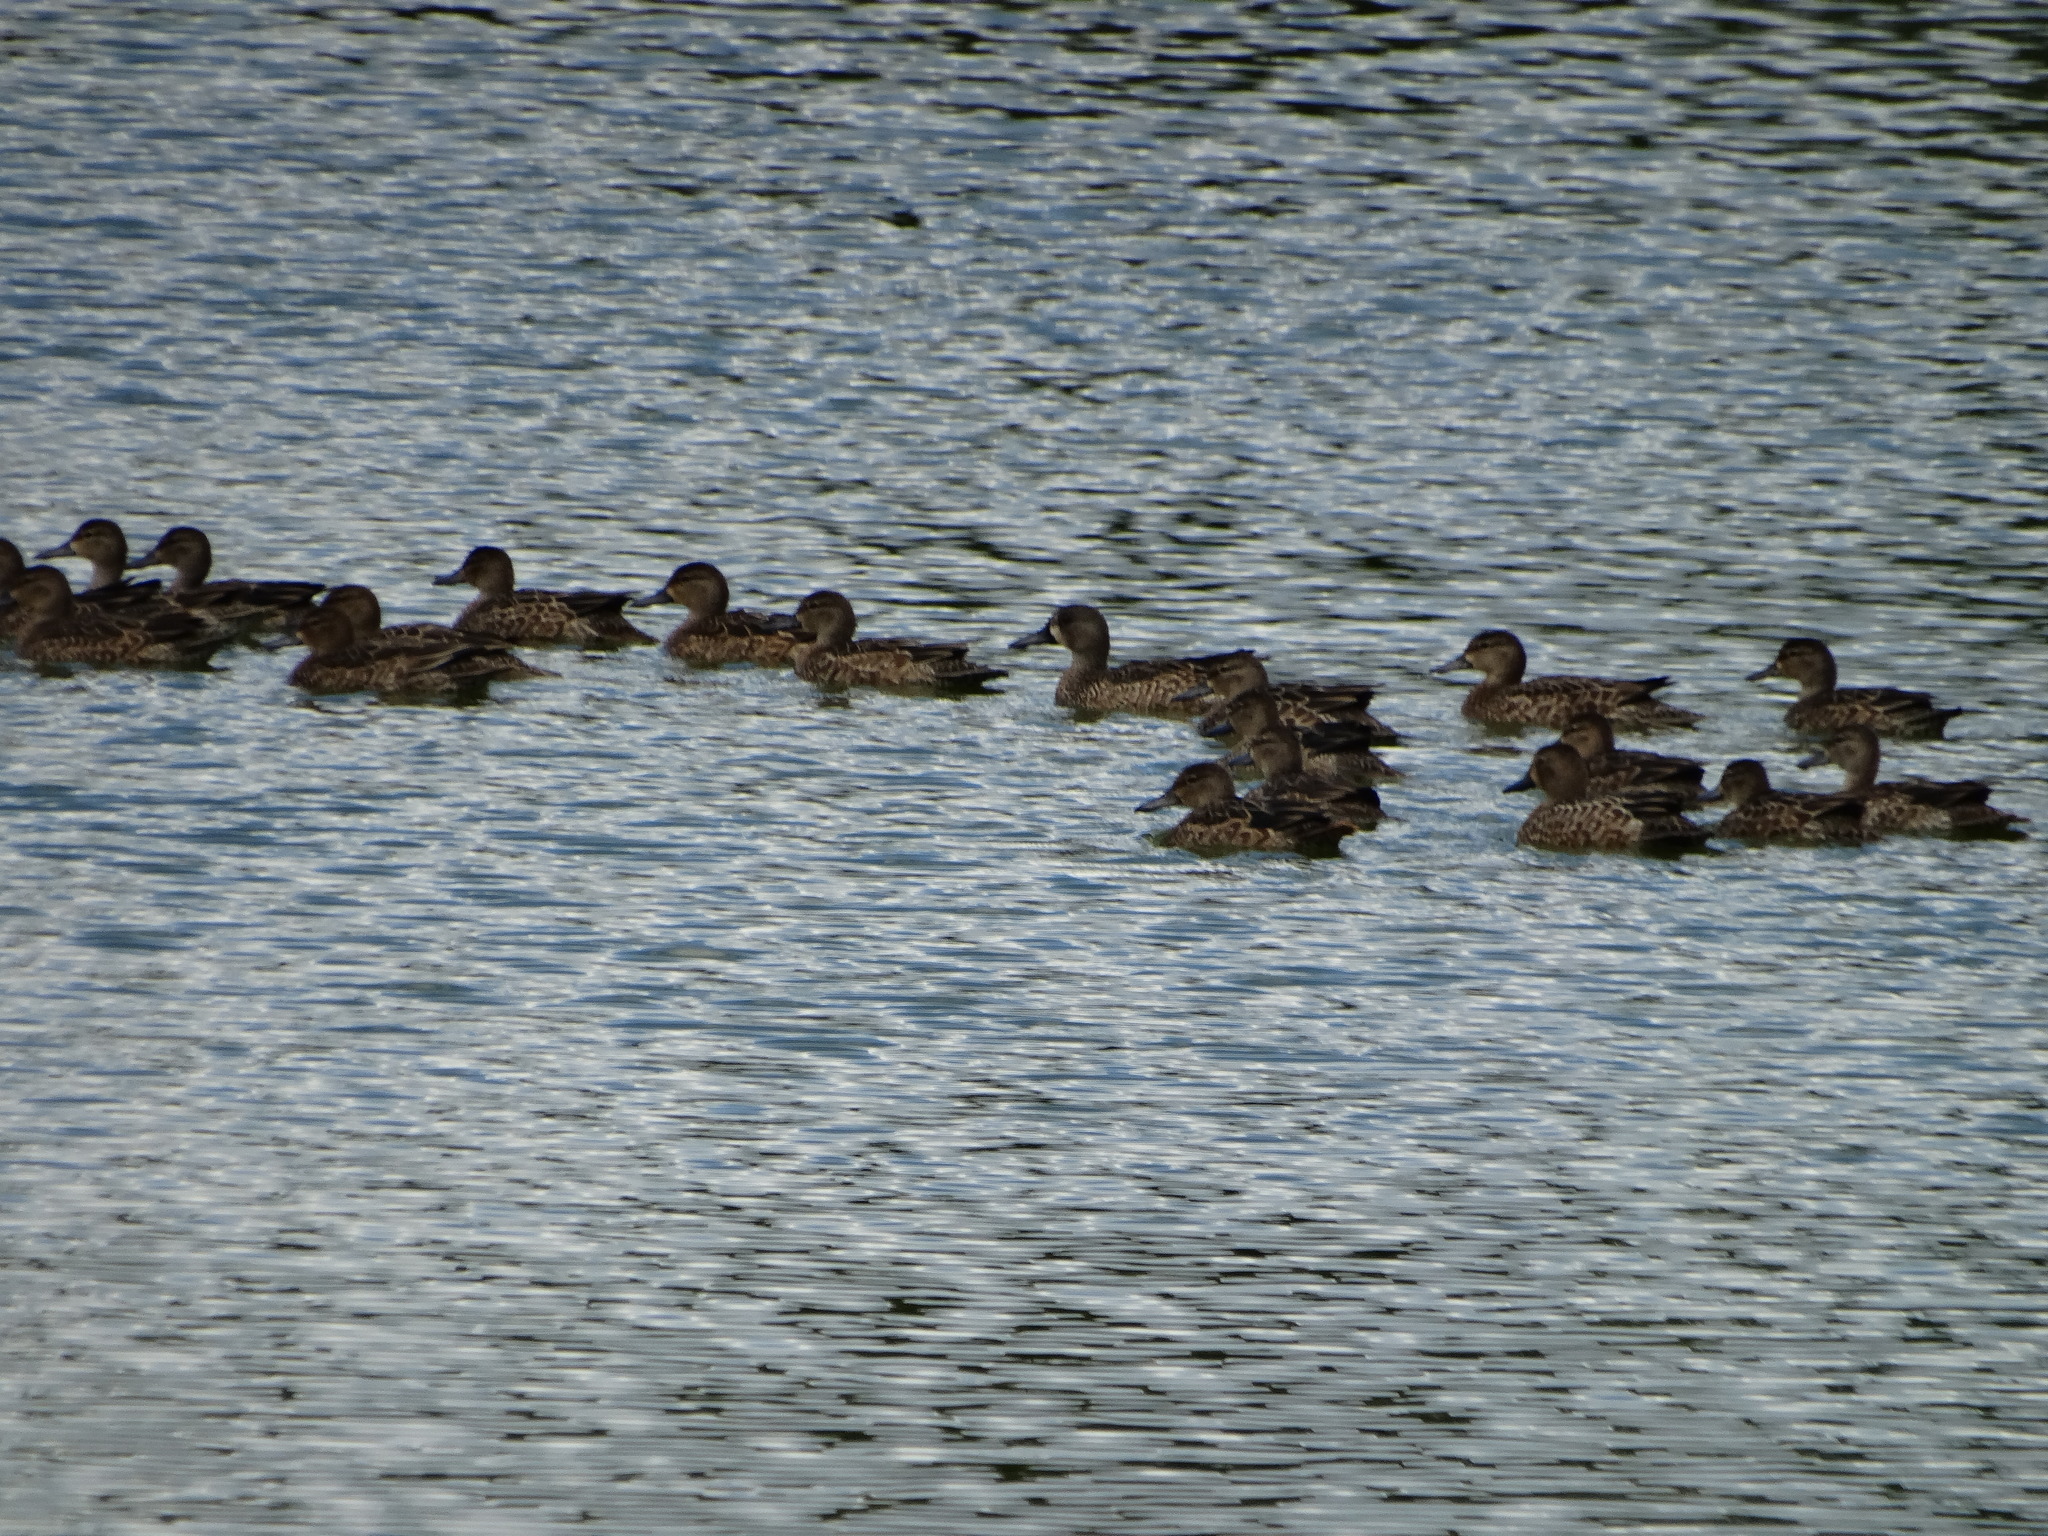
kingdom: Animalia
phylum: Chordata
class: Aves
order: Anseriformes
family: Anatidae
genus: Spatula
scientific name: Spatula discors
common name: Blue-winged teal
